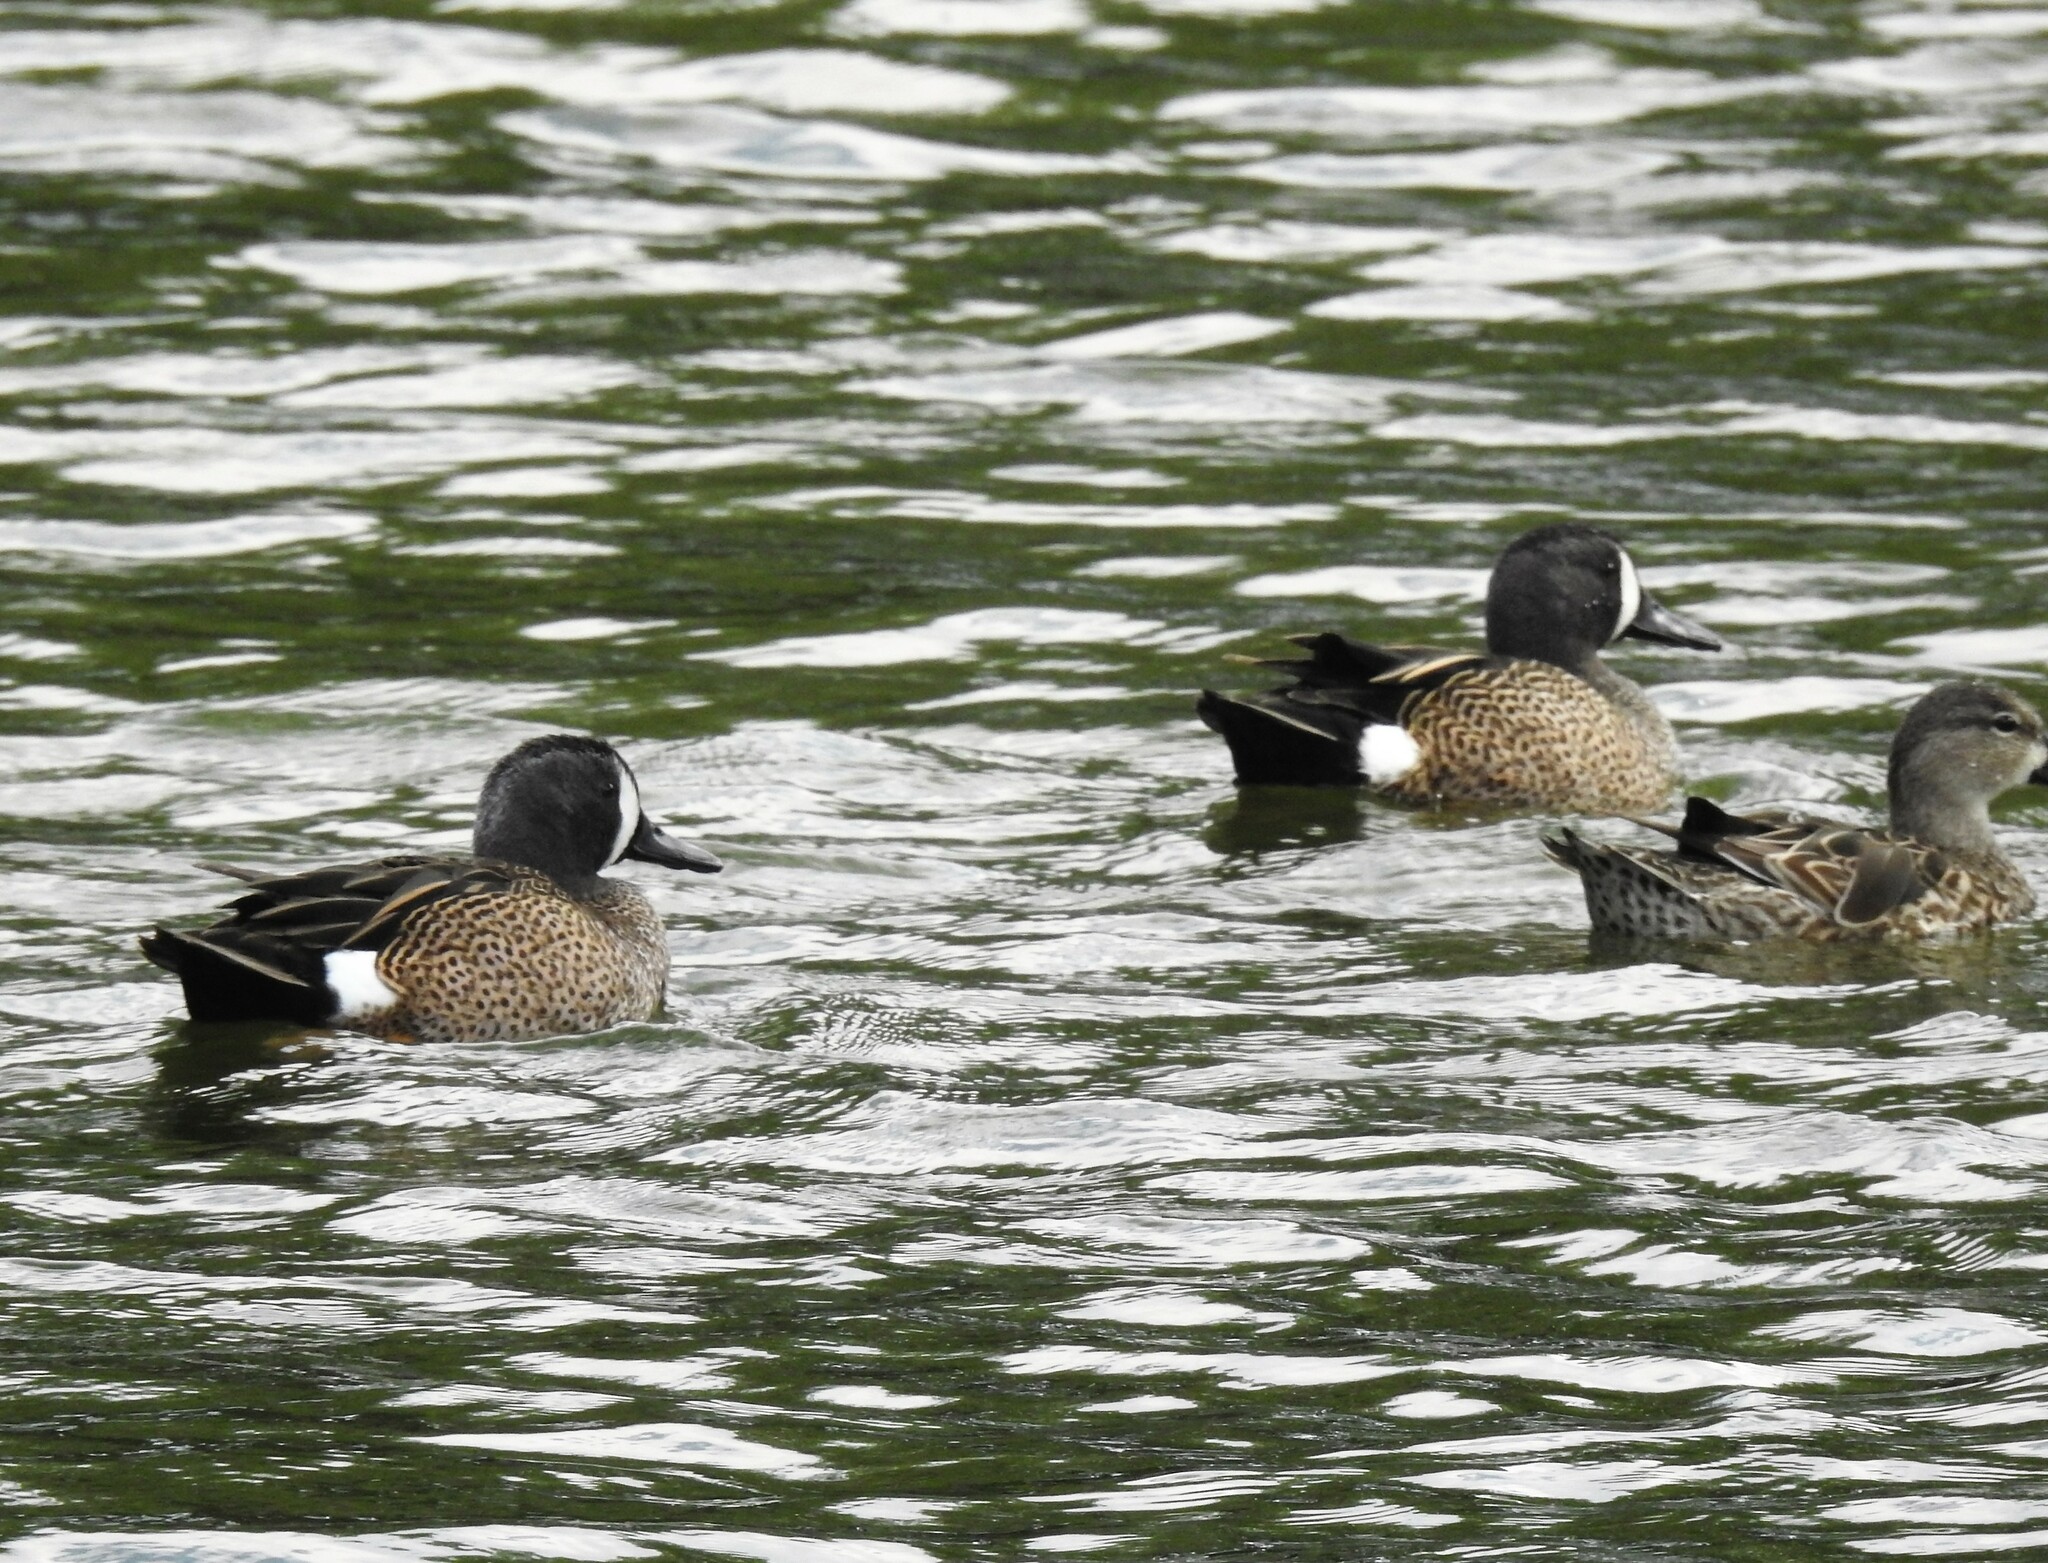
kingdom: Animalia
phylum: Chordata
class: Aves
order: Anseriformes
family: Anatidae
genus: Spatula
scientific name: Spatula discors
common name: Blue-winged teal
